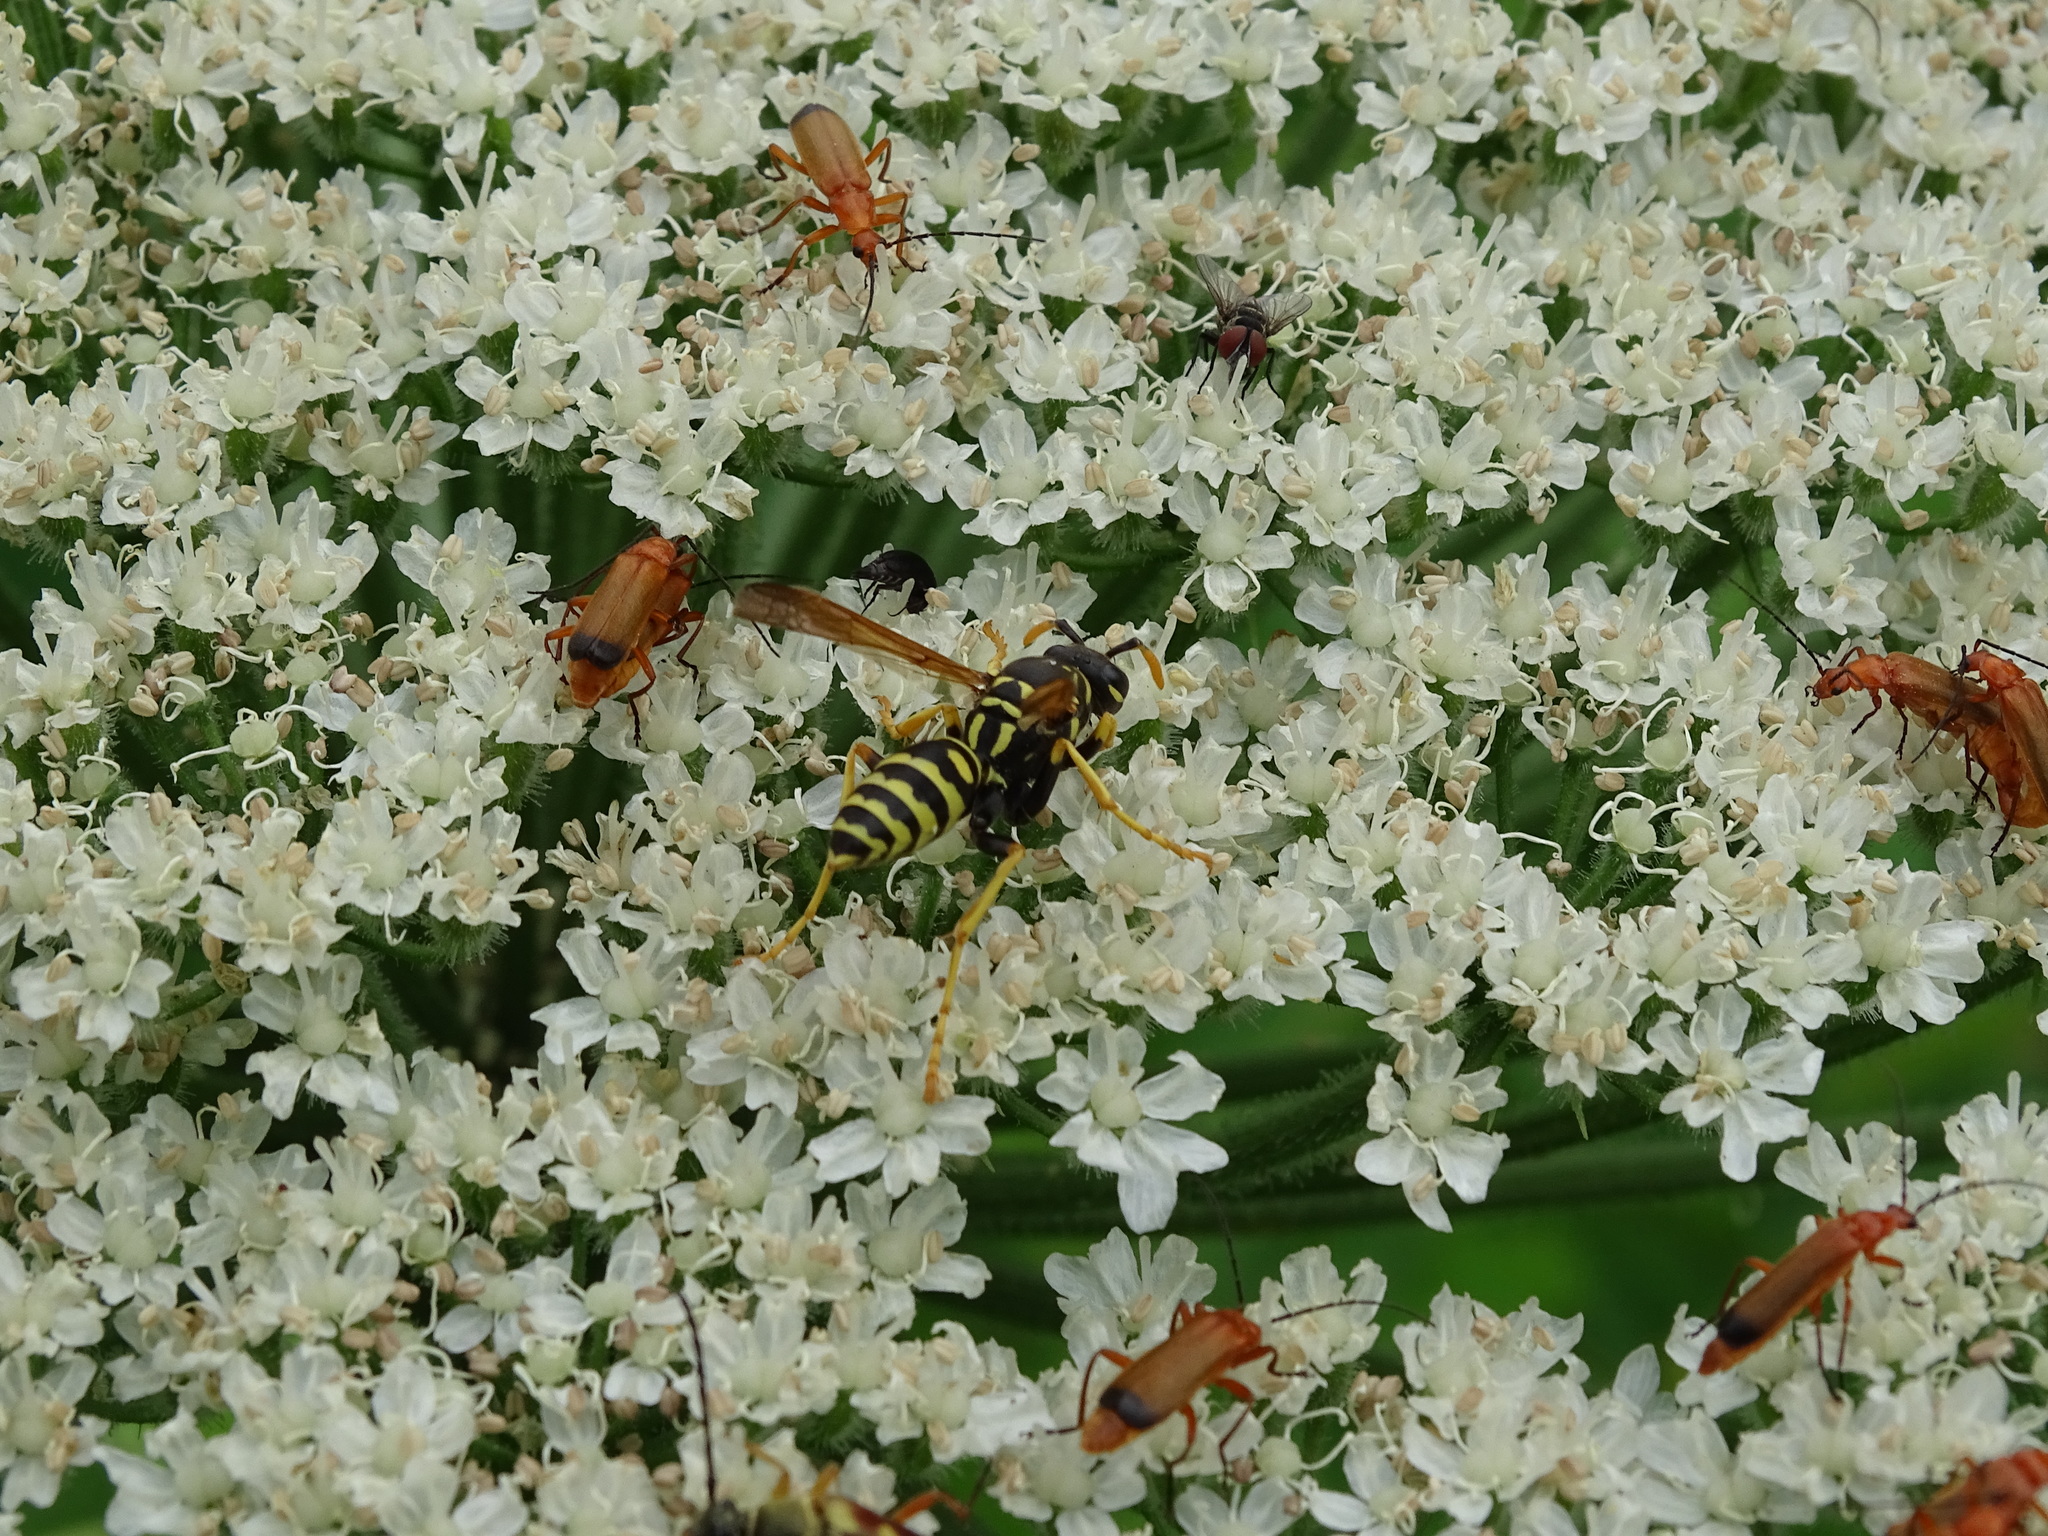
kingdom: Animalia
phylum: Arthropoda
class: Insecta
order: Hymenoptera
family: Eumenidae
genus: Polistes
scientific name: Polistes dominula
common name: Paper wasp
